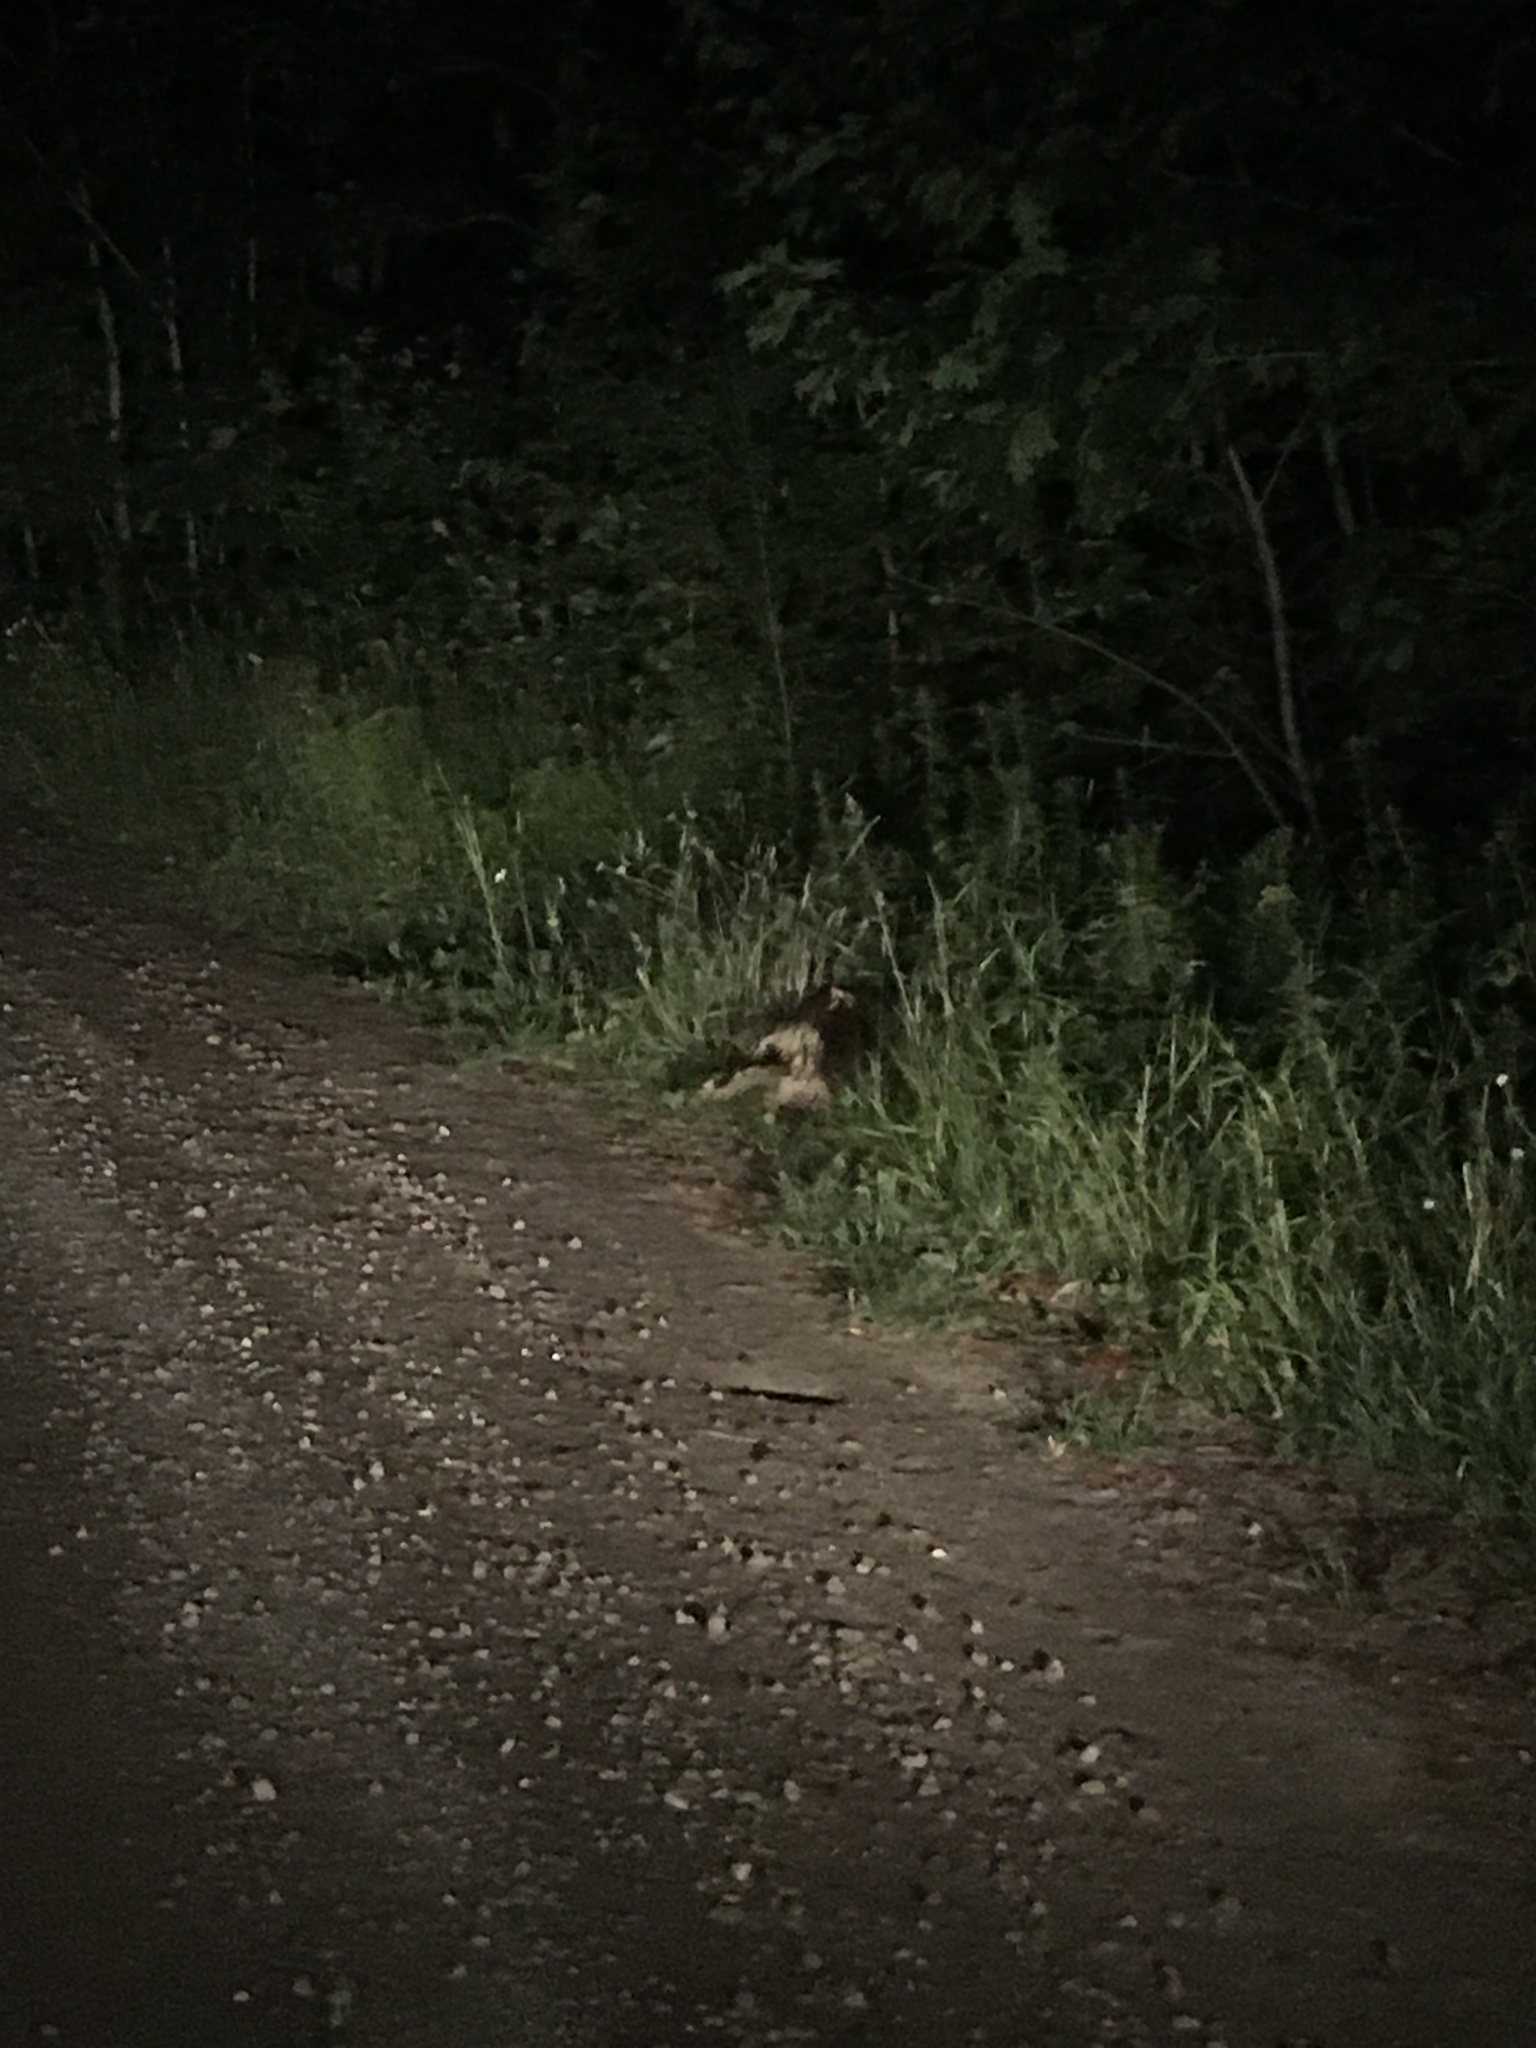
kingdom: Animalia
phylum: Chordata
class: Mammalia
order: Rodentia
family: Erethizontidae
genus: Erethizon
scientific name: Erethizon dorsatus
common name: North american porcupine
